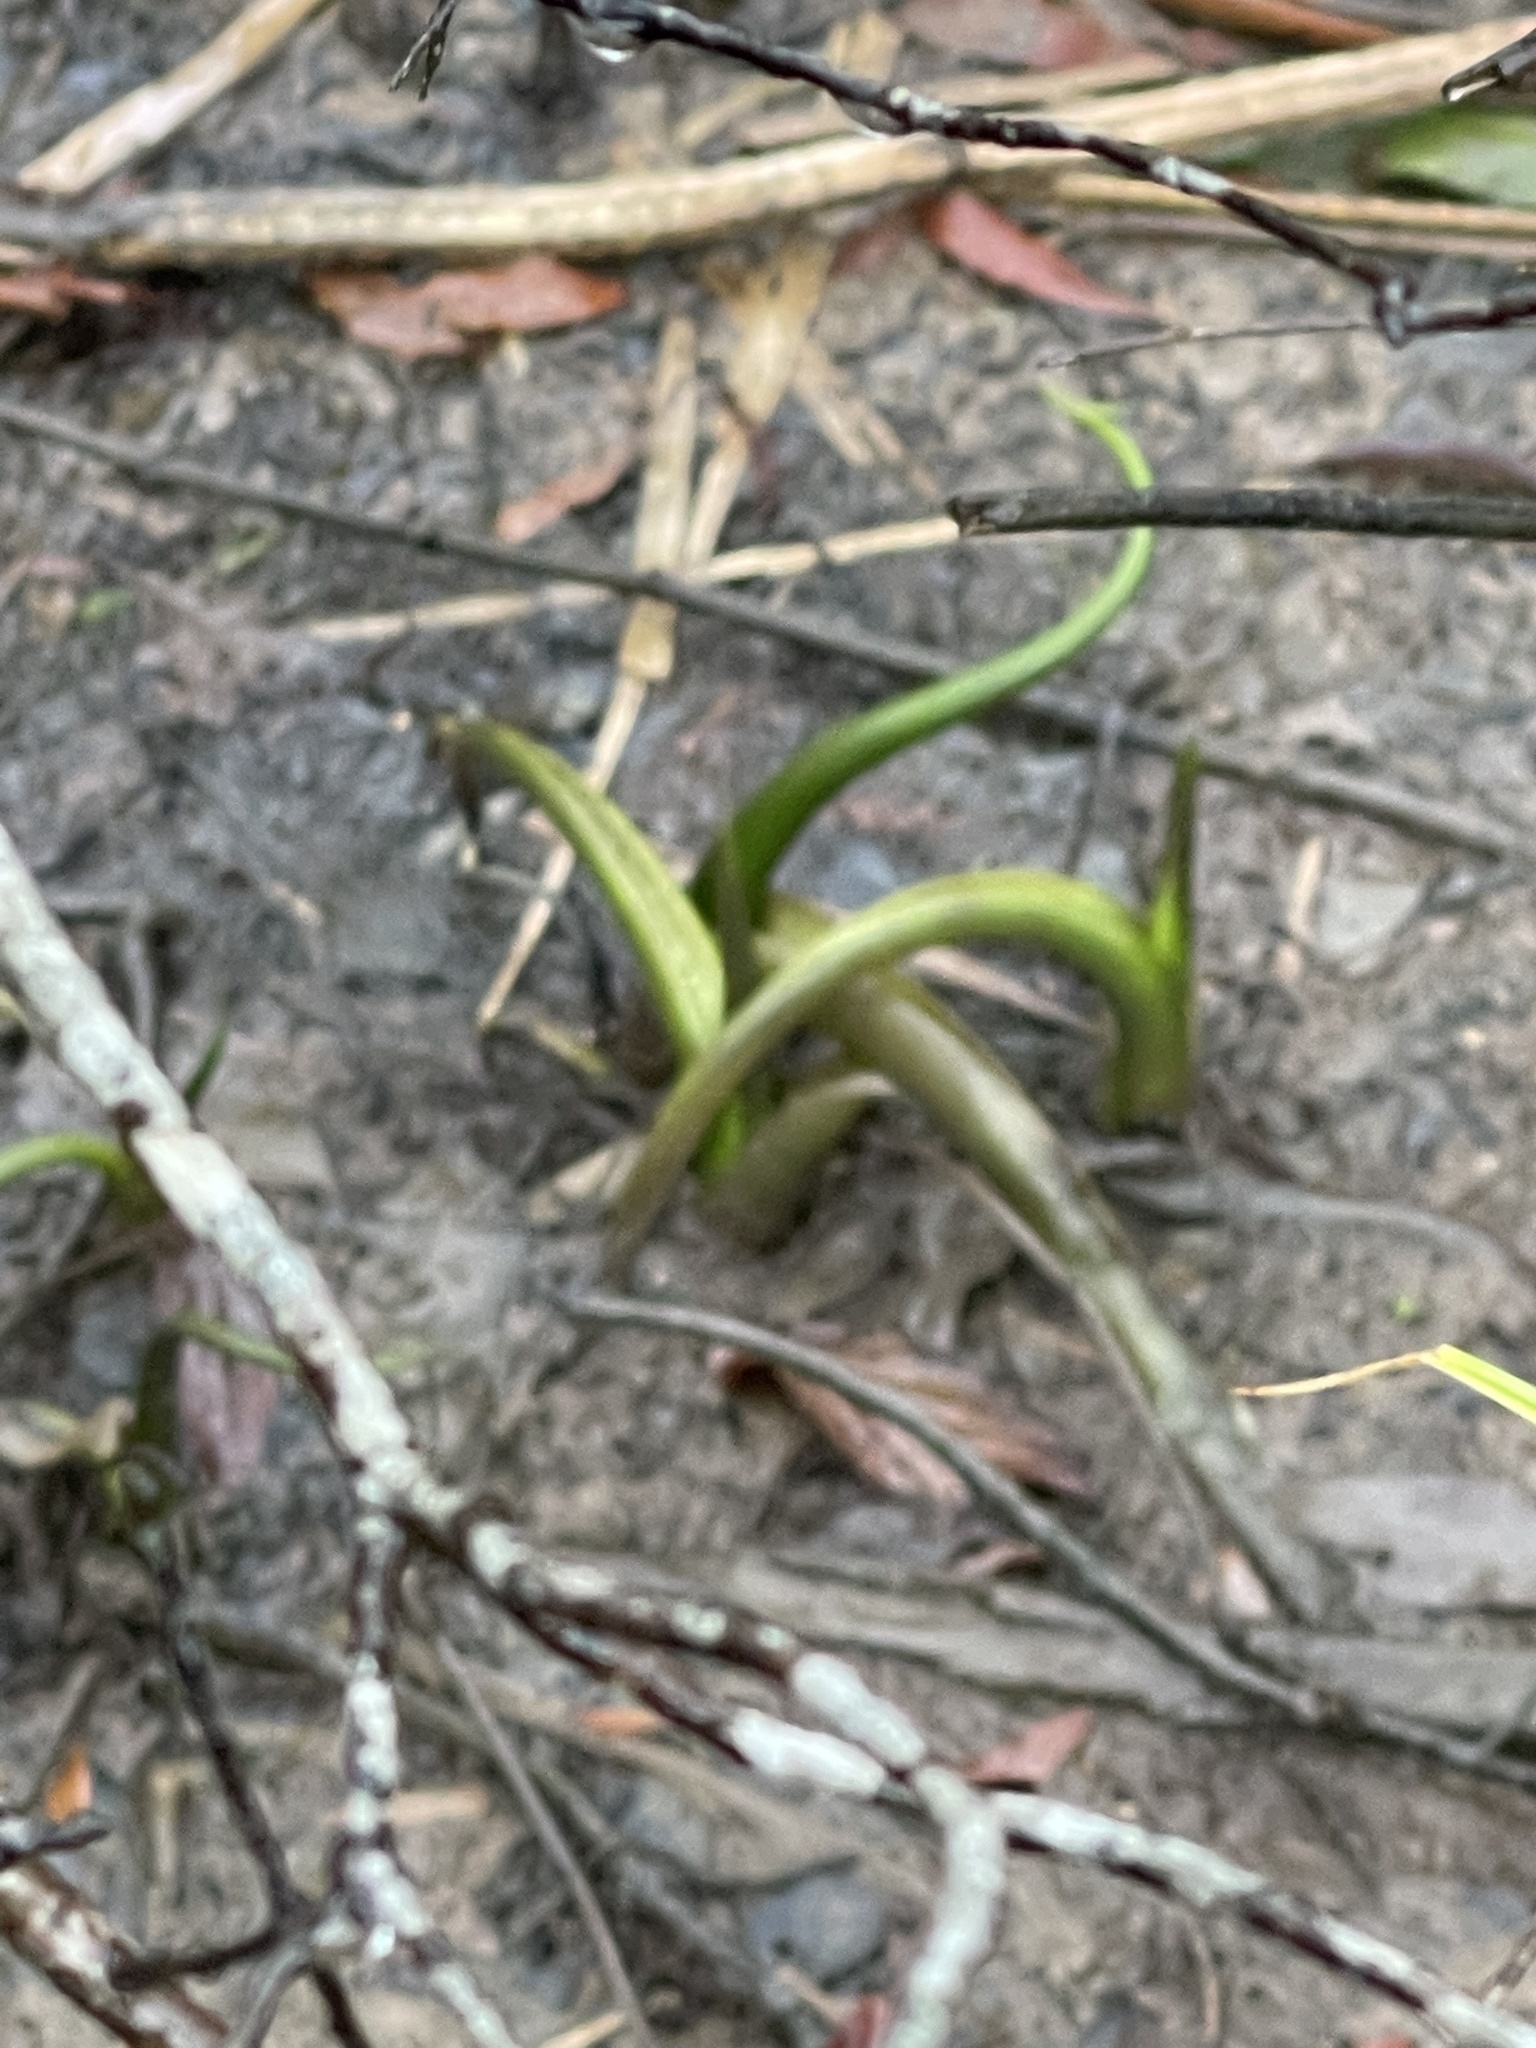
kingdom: Plantae
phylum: Tracheophyta
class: Liliopsida
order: Alismatales
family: Araceae
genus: Peltandra
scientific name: Peltandra virginica
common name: Arrow arum
